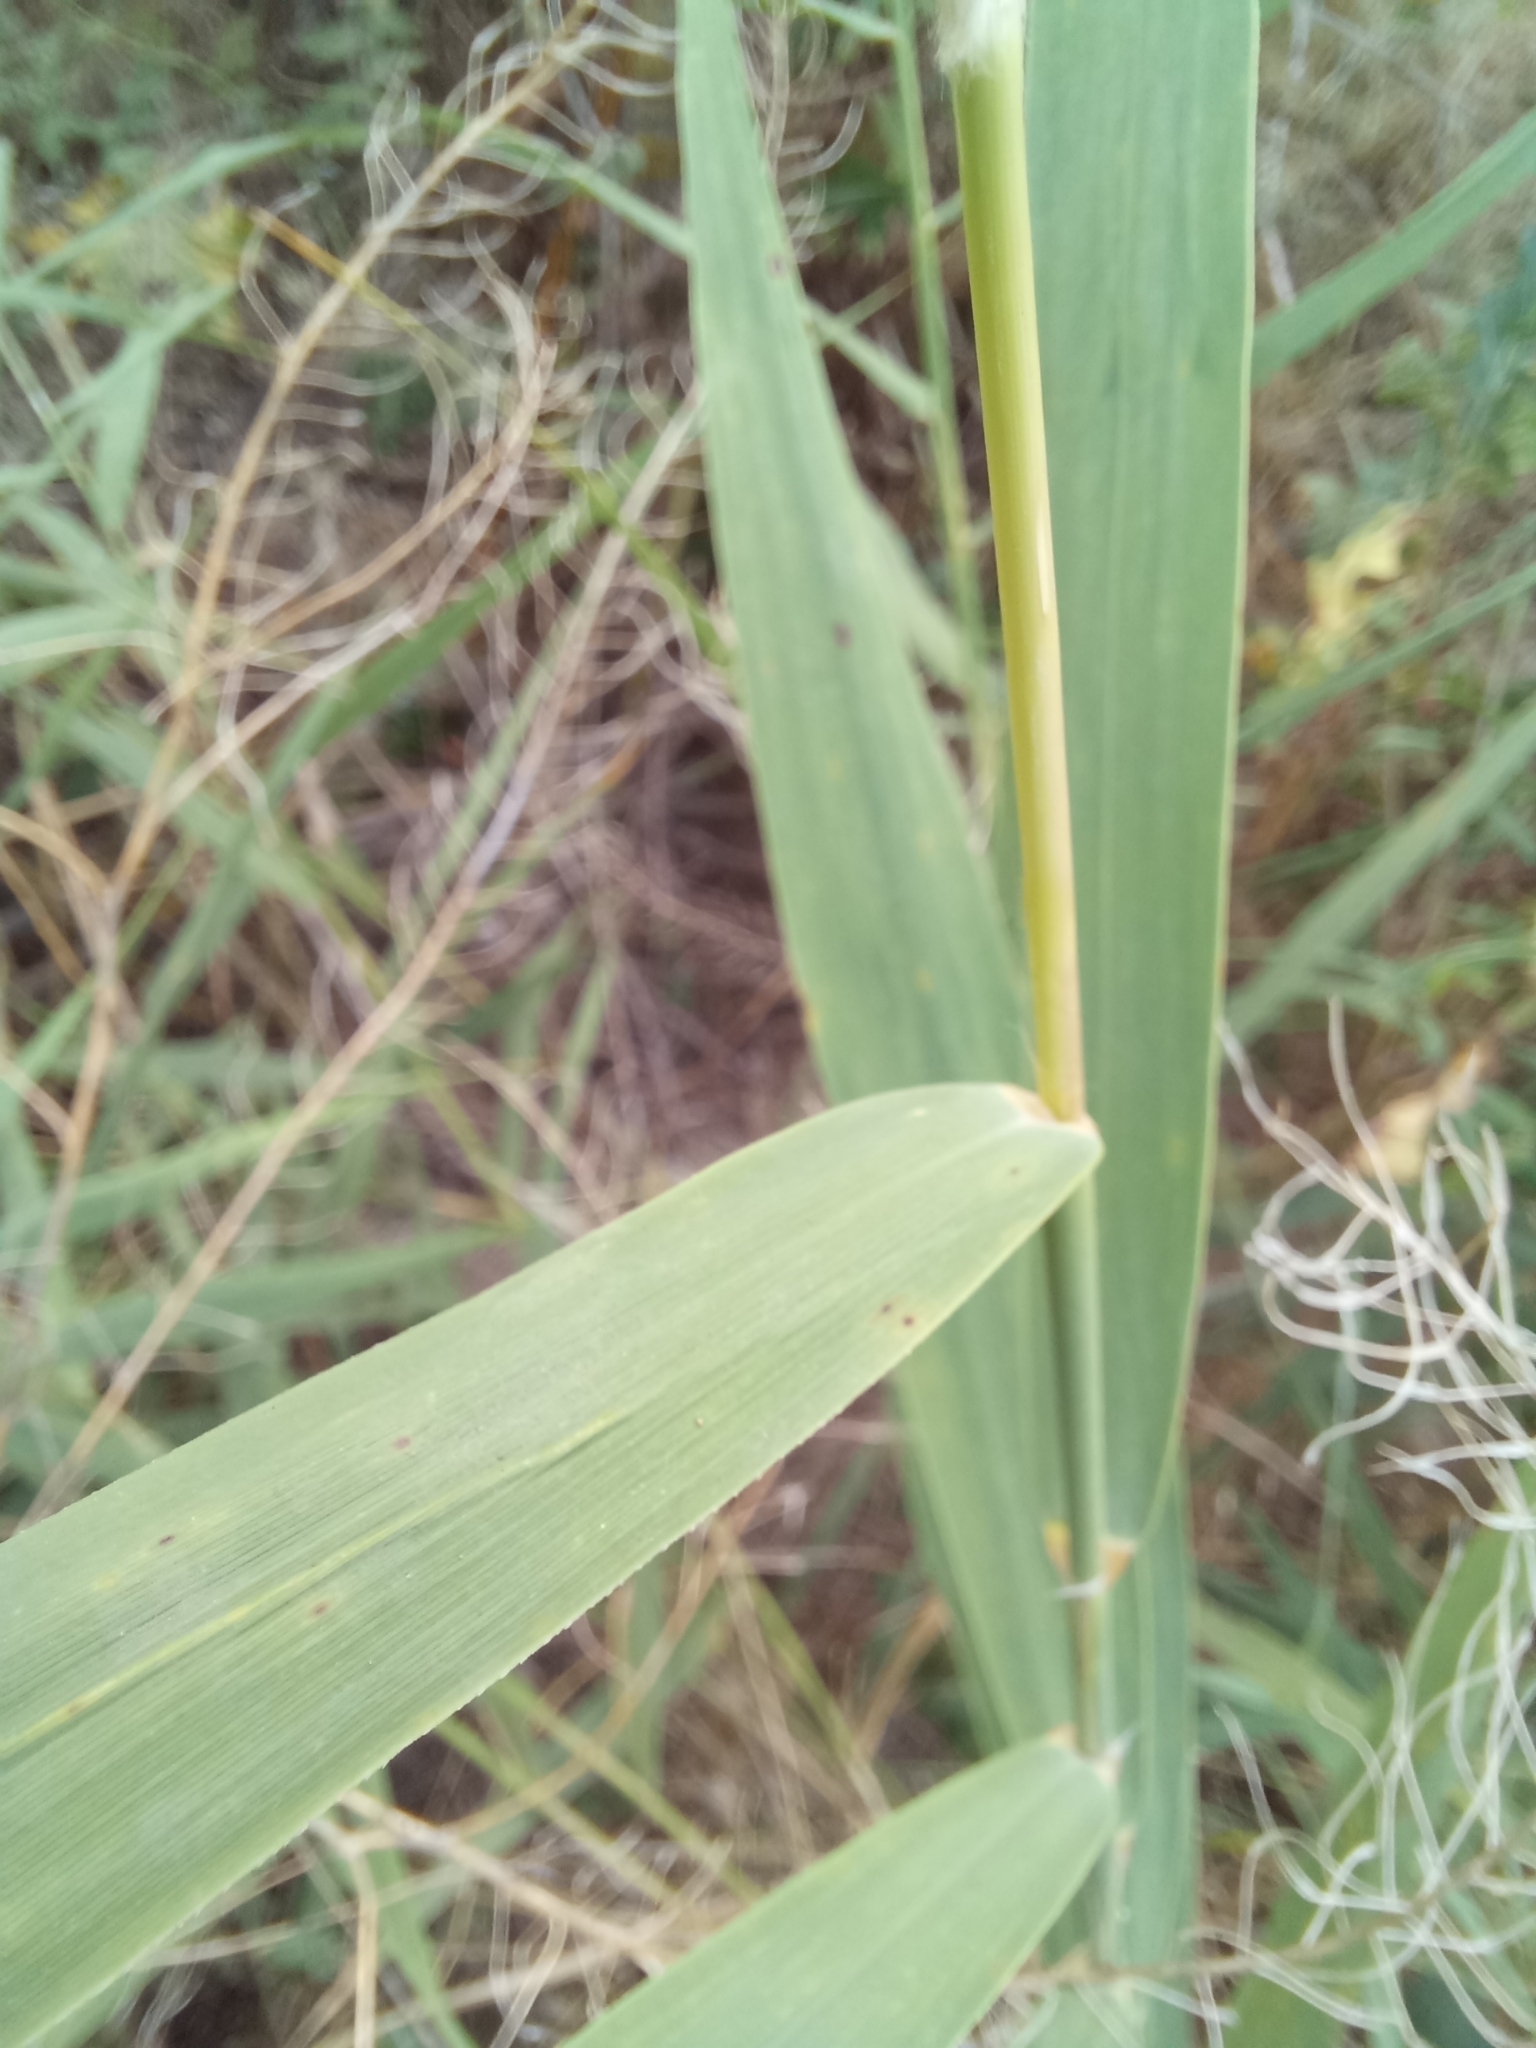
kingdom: Plantae
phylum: Tracheophyta
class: Liliopsida
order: Poales
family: Poaceae
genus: Phragmites
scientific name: Phragmites australis
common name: Common reed
